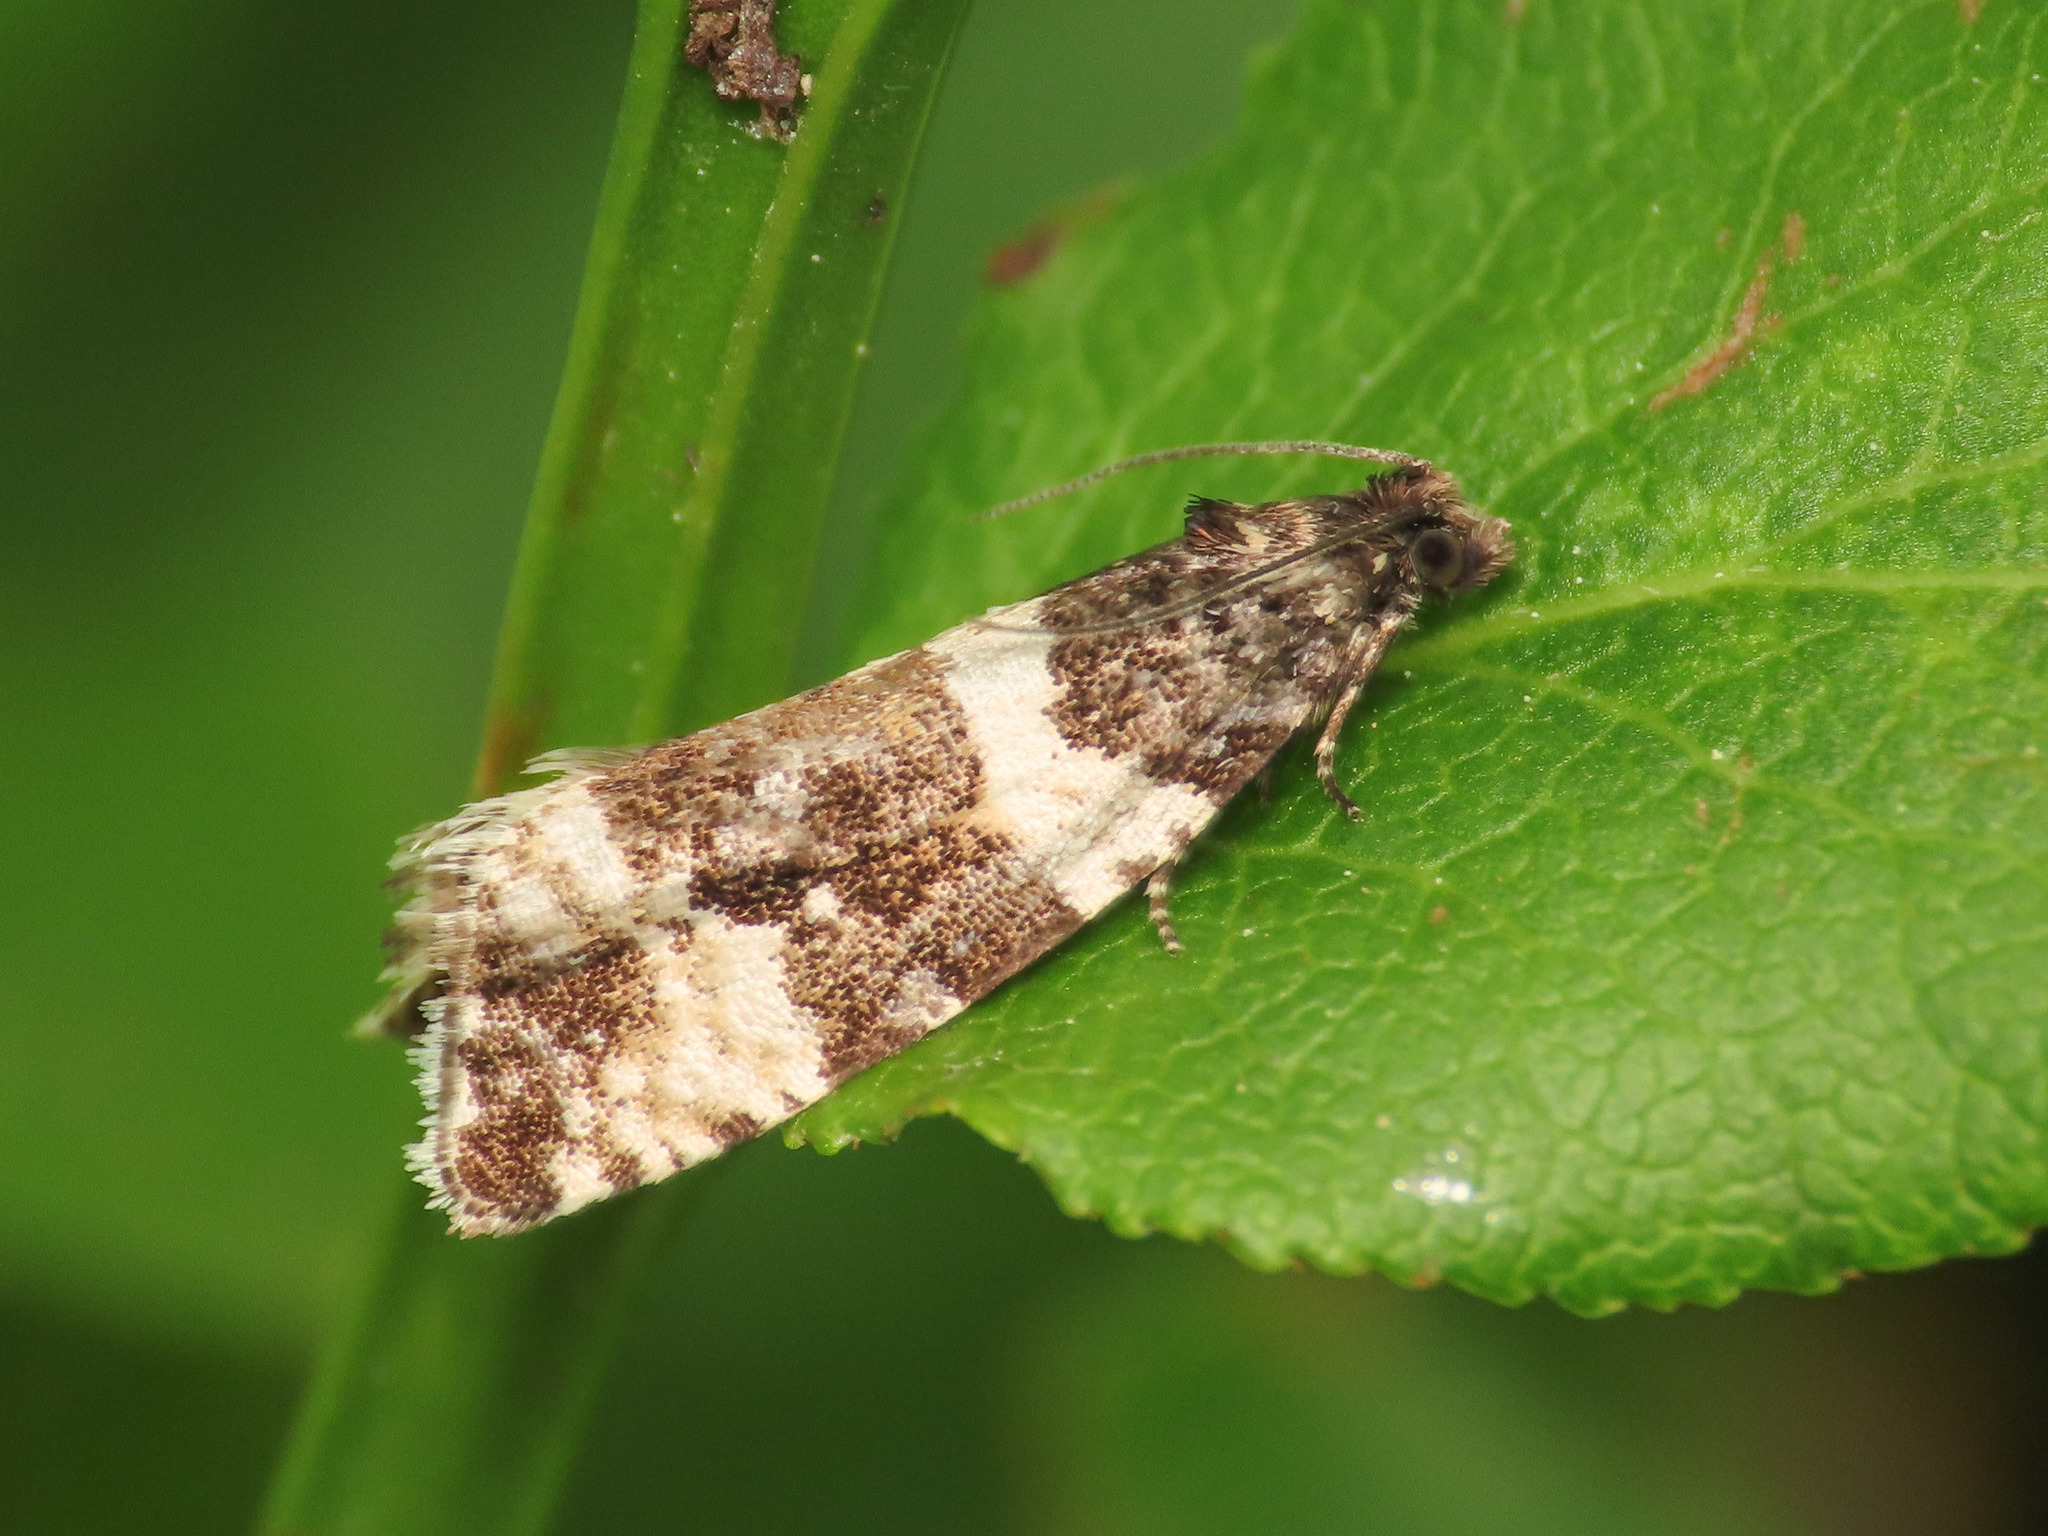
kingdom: Animalia
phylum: Arthropoda
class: Insecta
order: Lepidoptera
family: Tortricidae
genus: Argyroploce
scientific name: Argyroploce bipunctana
